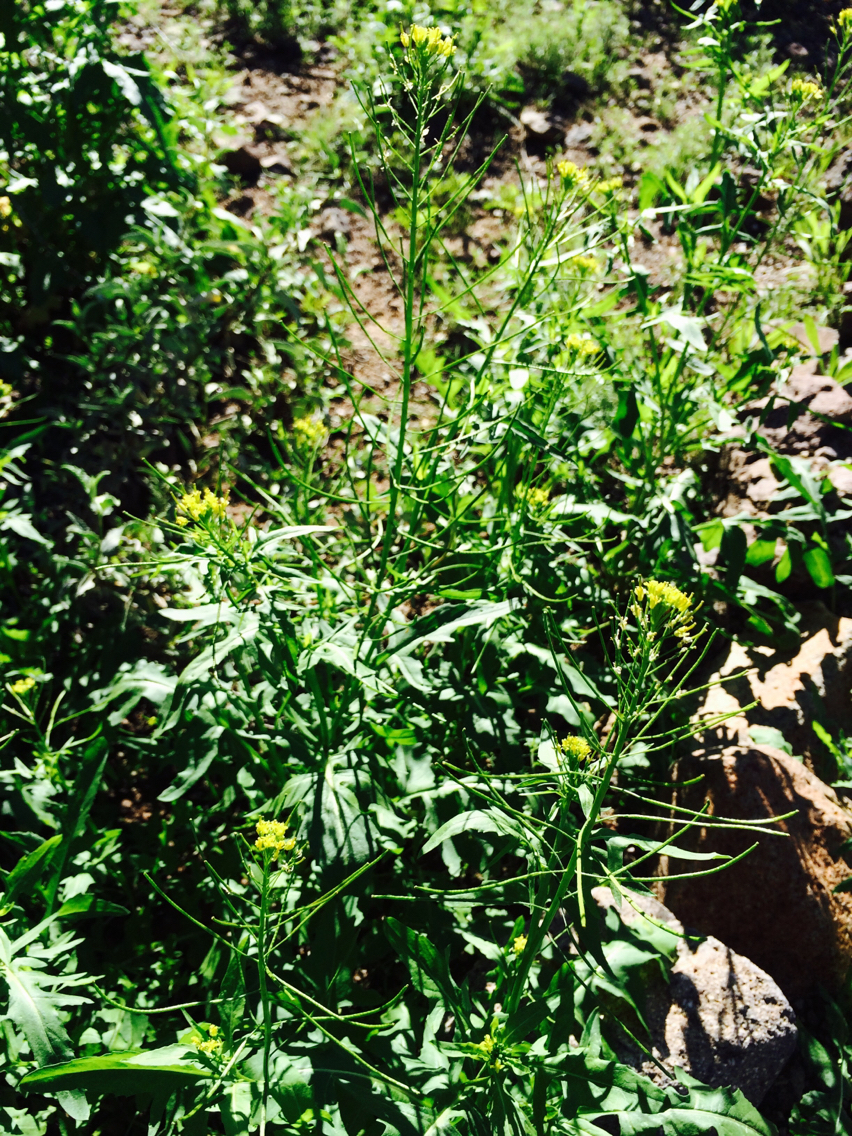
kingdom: Plantae
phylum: Tracheophyta
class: Magnoliopsida
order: Brassicales
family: Brassicaceae
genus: Sisymbrium
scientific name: Sisymbrium irio
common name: London rocket
